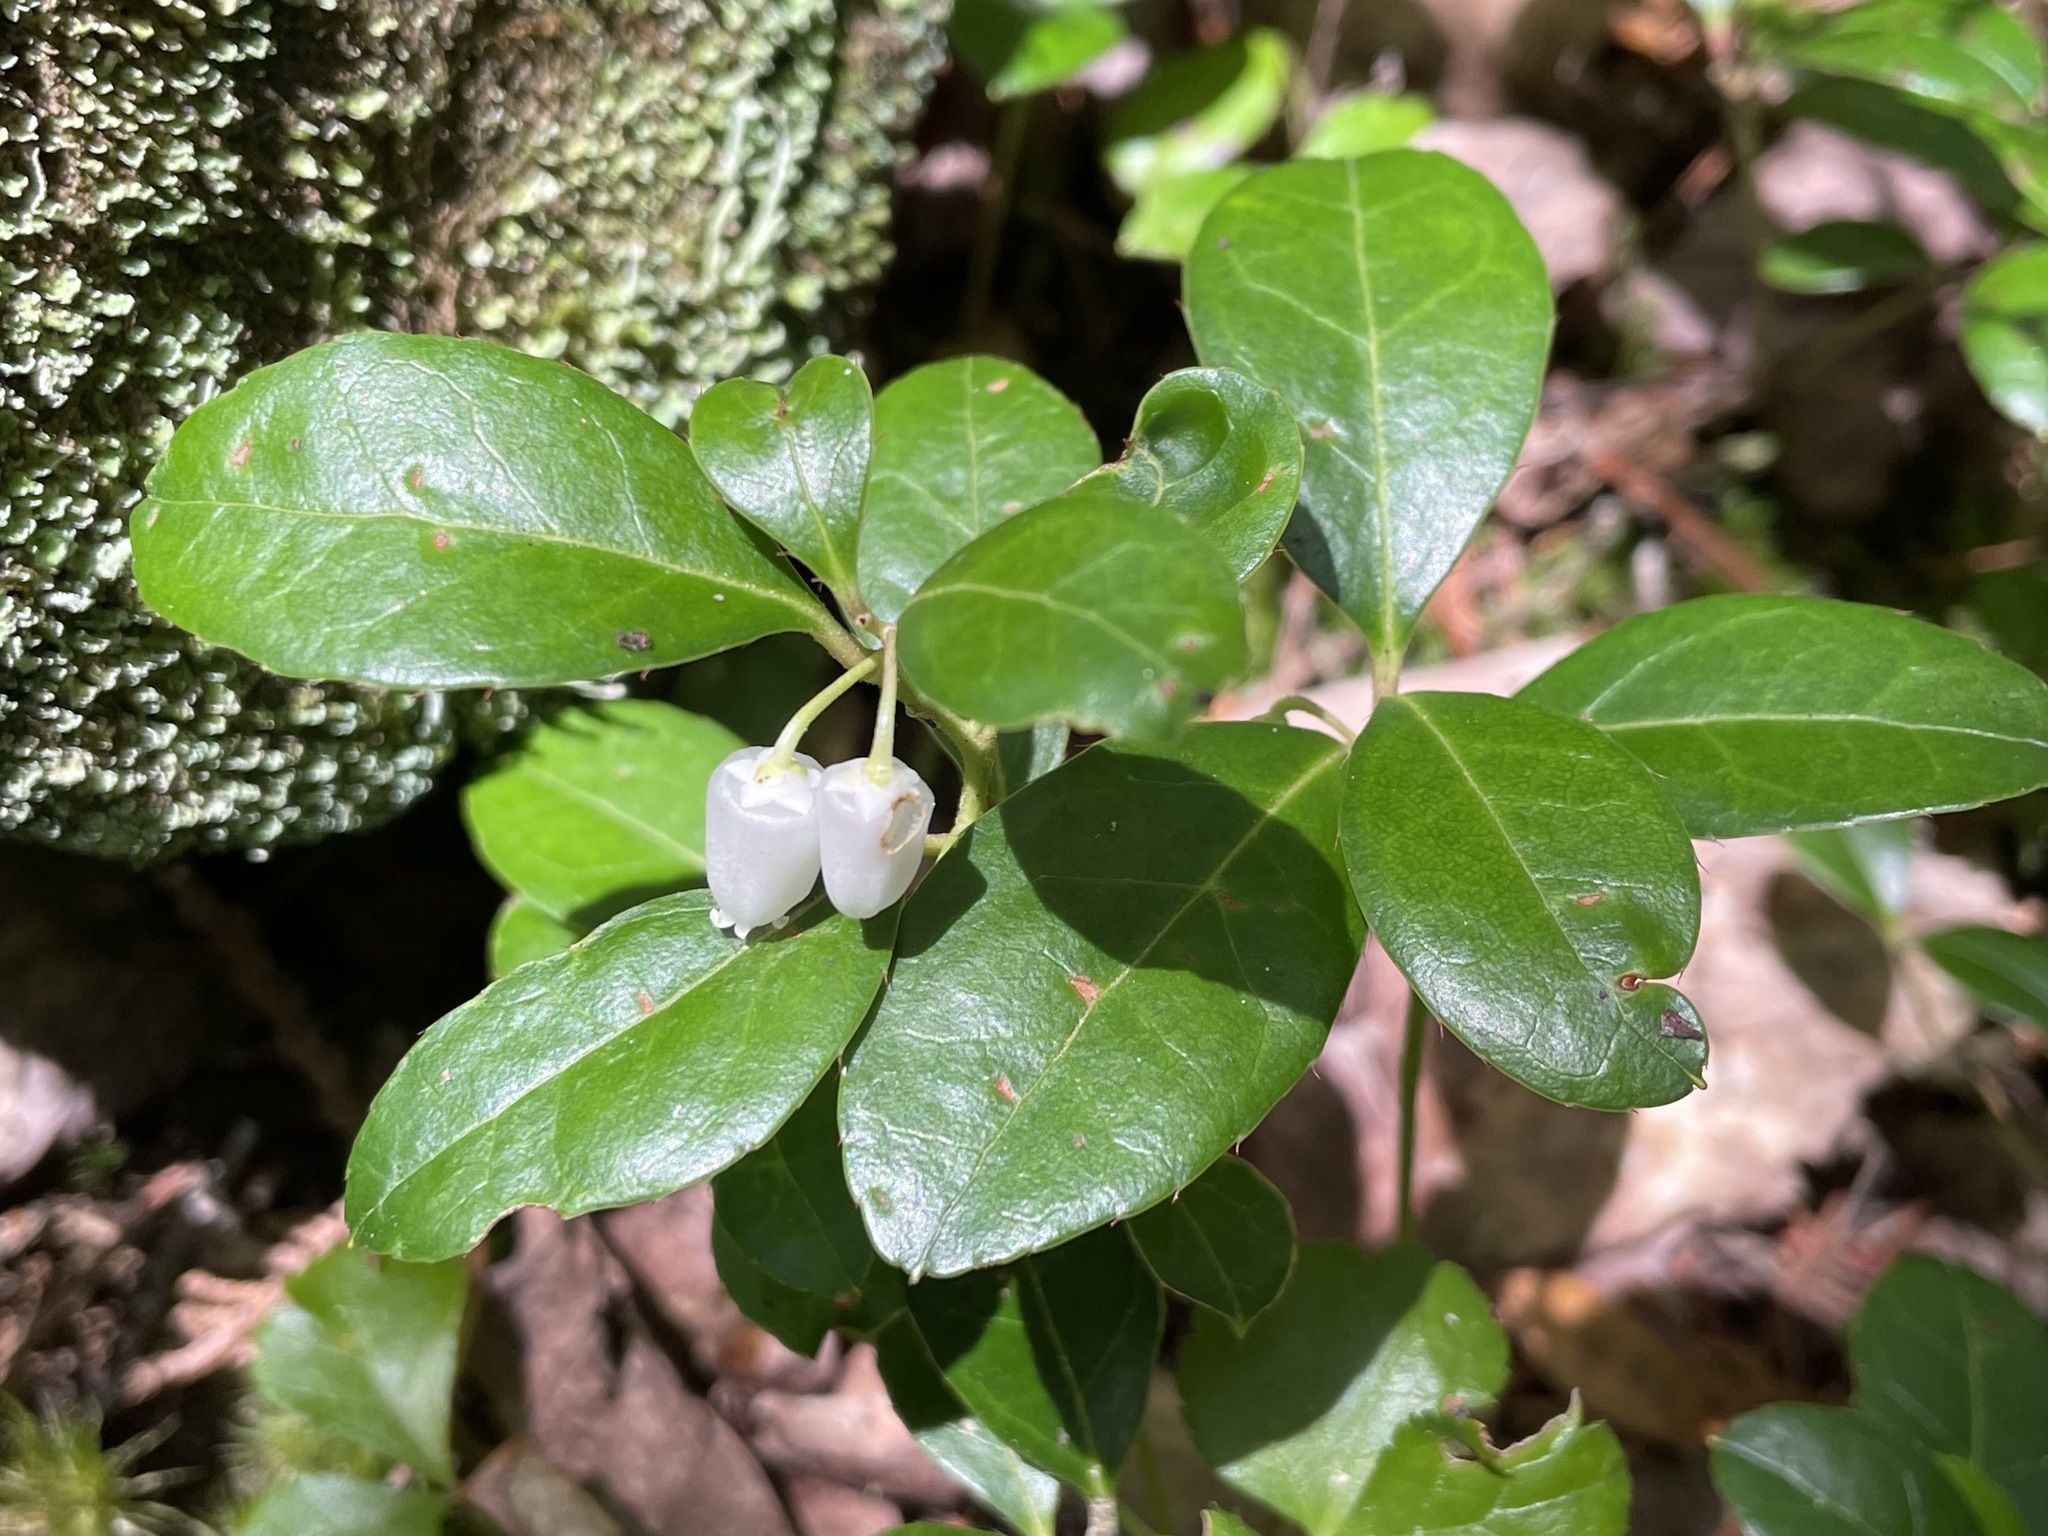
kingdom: Plantae
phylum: Tracheophyta
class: Magnoliopsida
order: Ericales
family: Ericaceae
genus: Gaultheria
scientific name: Gaultheria procumbens
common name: Checkerberry
